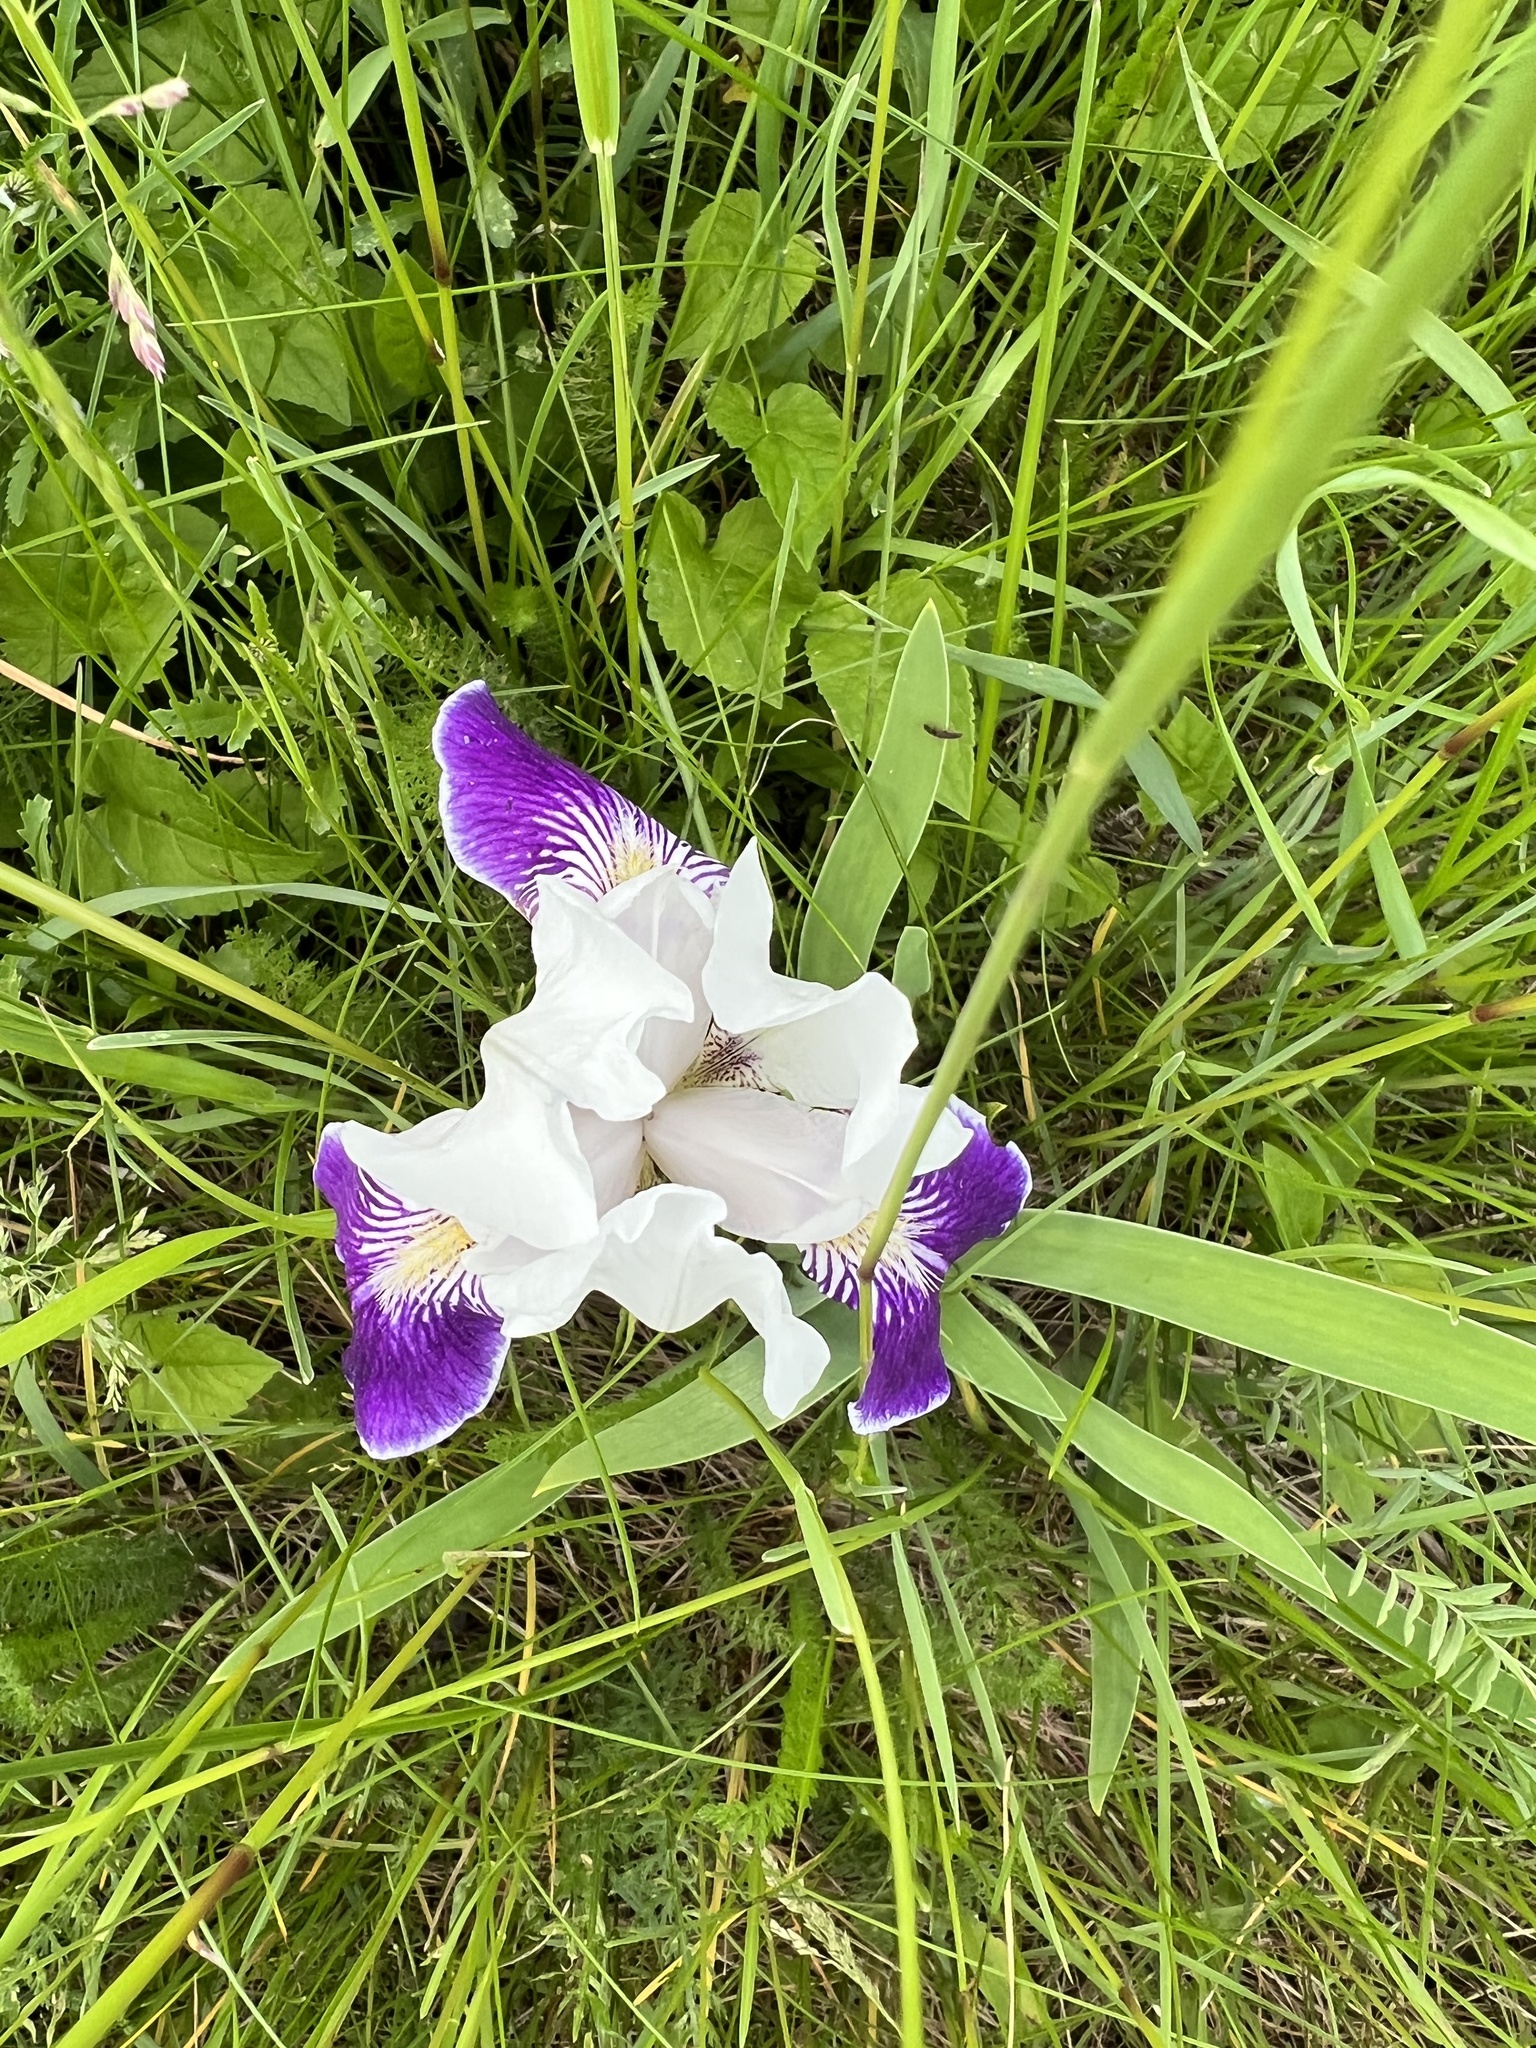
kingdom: Plantae
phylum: Tracheophyta
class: Liliopsida
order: Asparagales
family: Iridaceae
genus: Iris
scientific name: Iris hybrida
